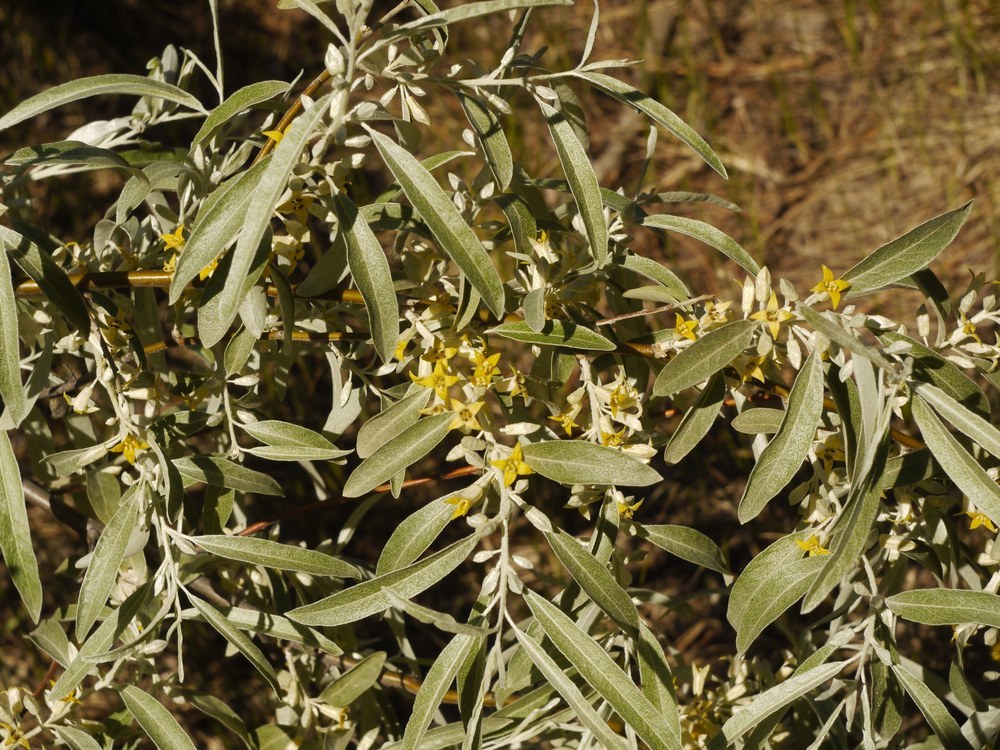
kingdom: Plantae
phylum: Tracheophyta
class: Magnoliopsida
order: Rosales
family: Elaeagnaceae
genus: Elaeagnus
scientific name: Elaeagnus angustifolia
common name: Russian olive
